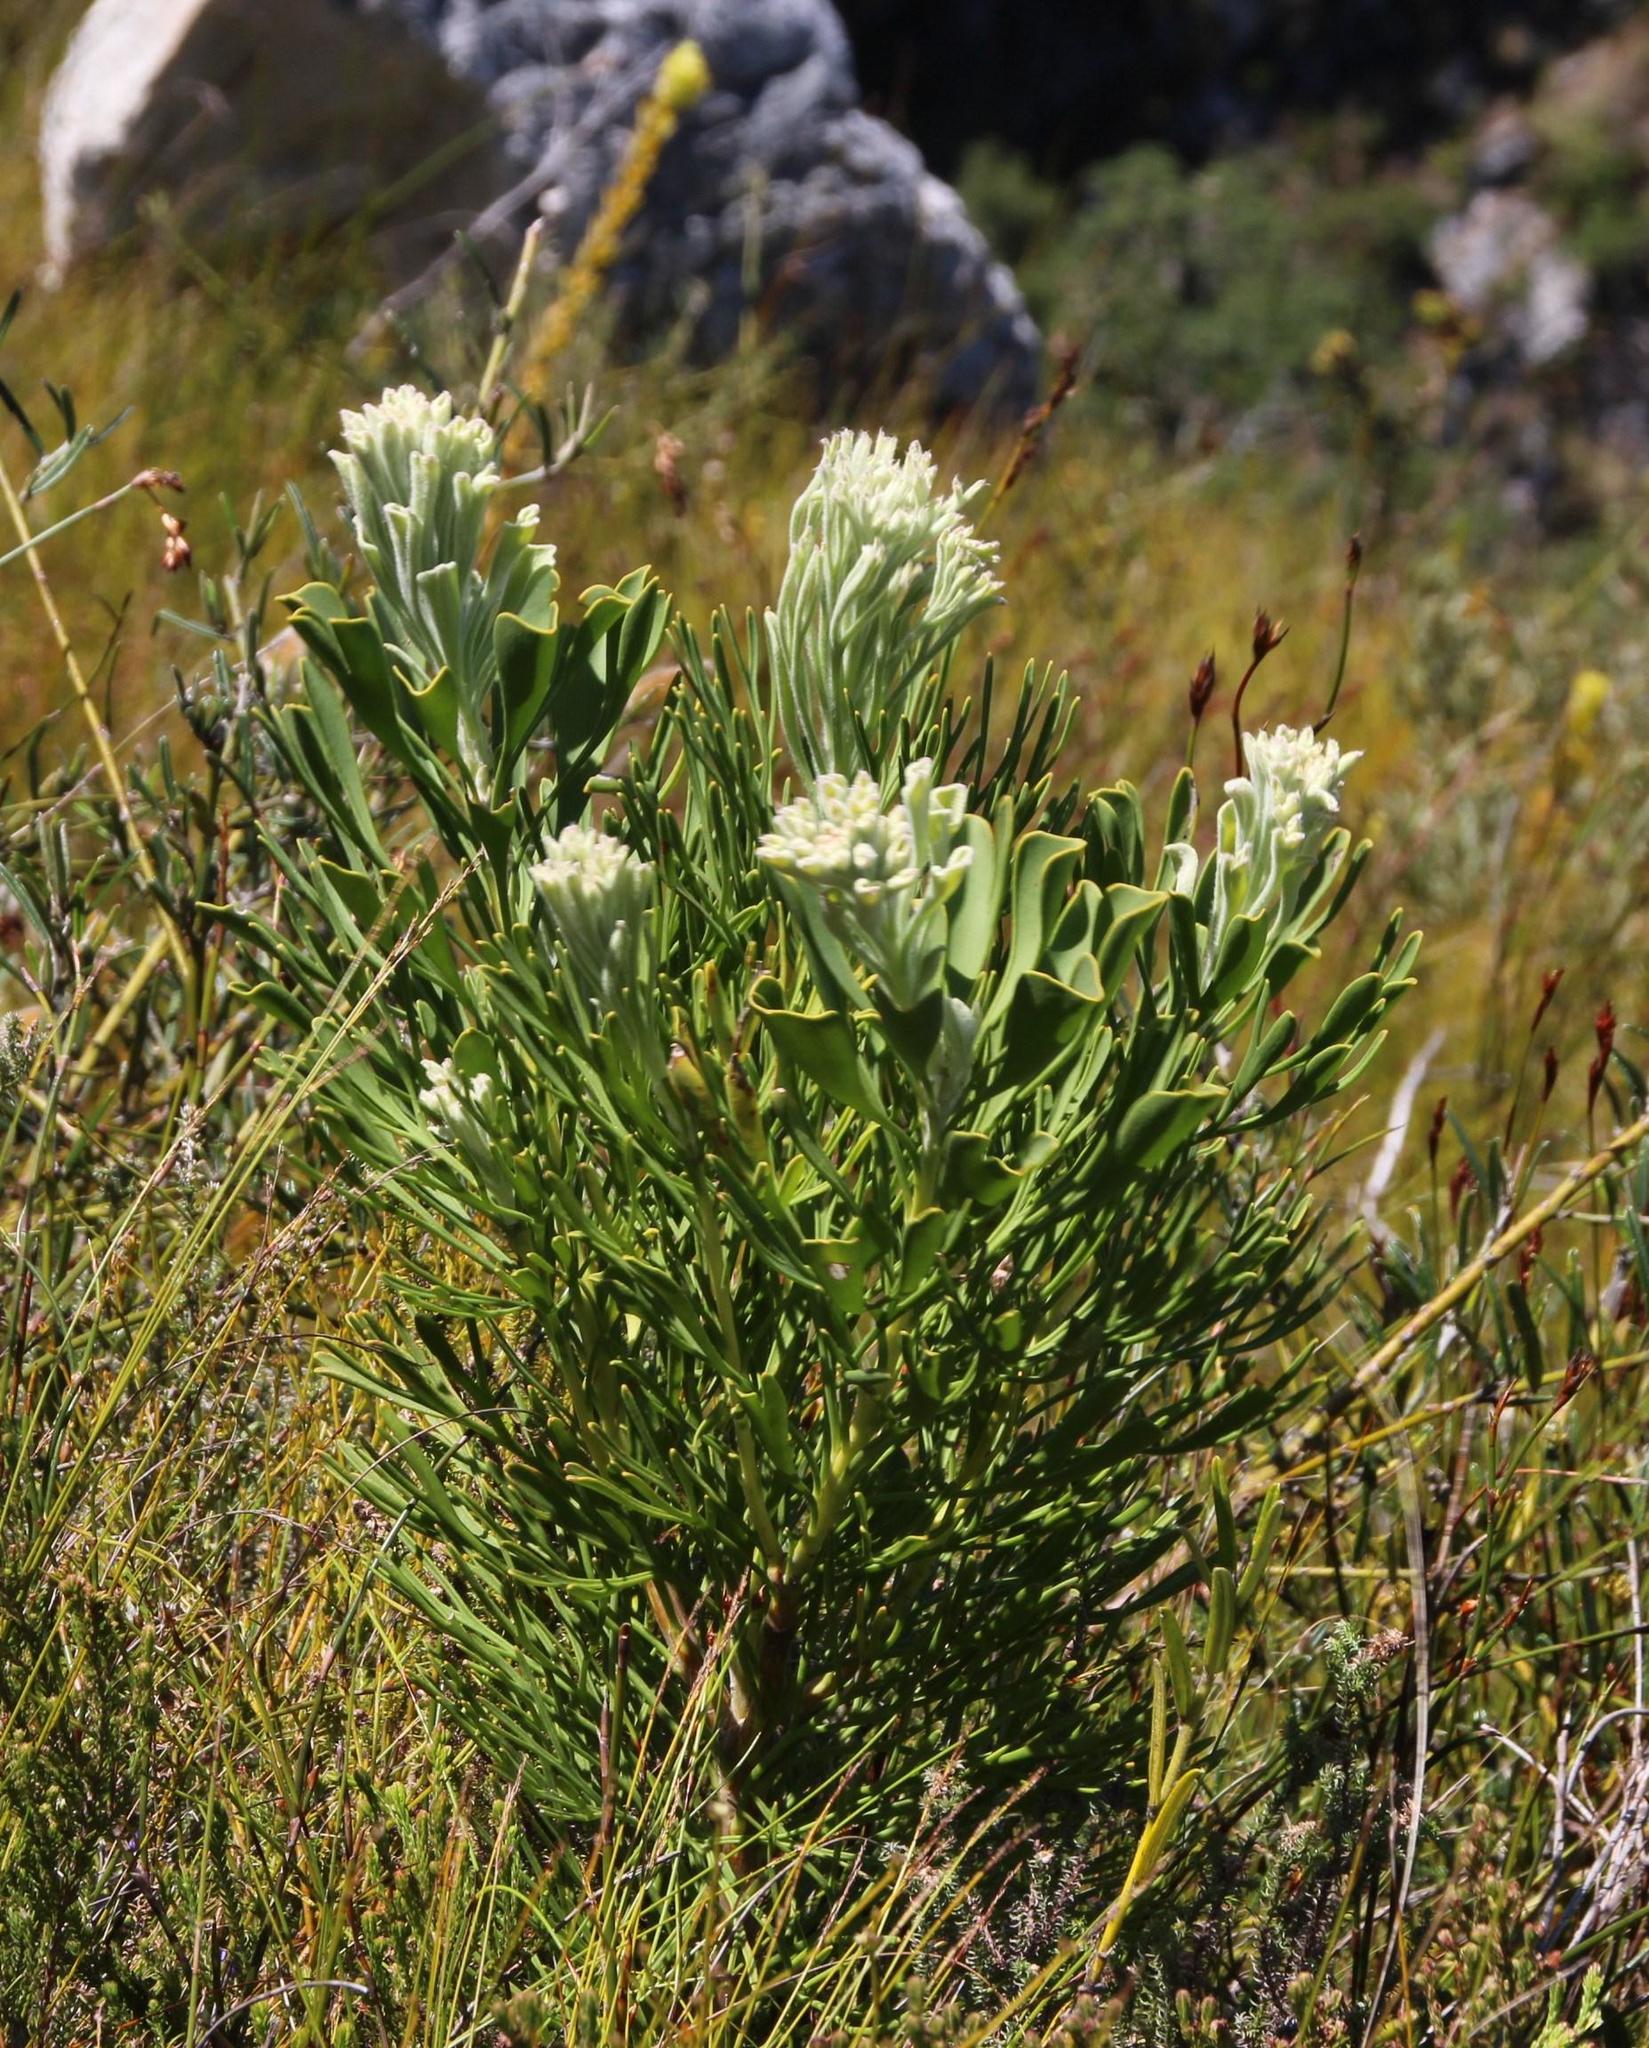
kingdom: Plantae
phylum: Tracheophyta
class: Magnoliopsida
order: Proteales
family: Proteaceae
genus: Paranomus
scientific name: Paranomus sceptrum-gustavianus
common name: King gustav's sceptre
